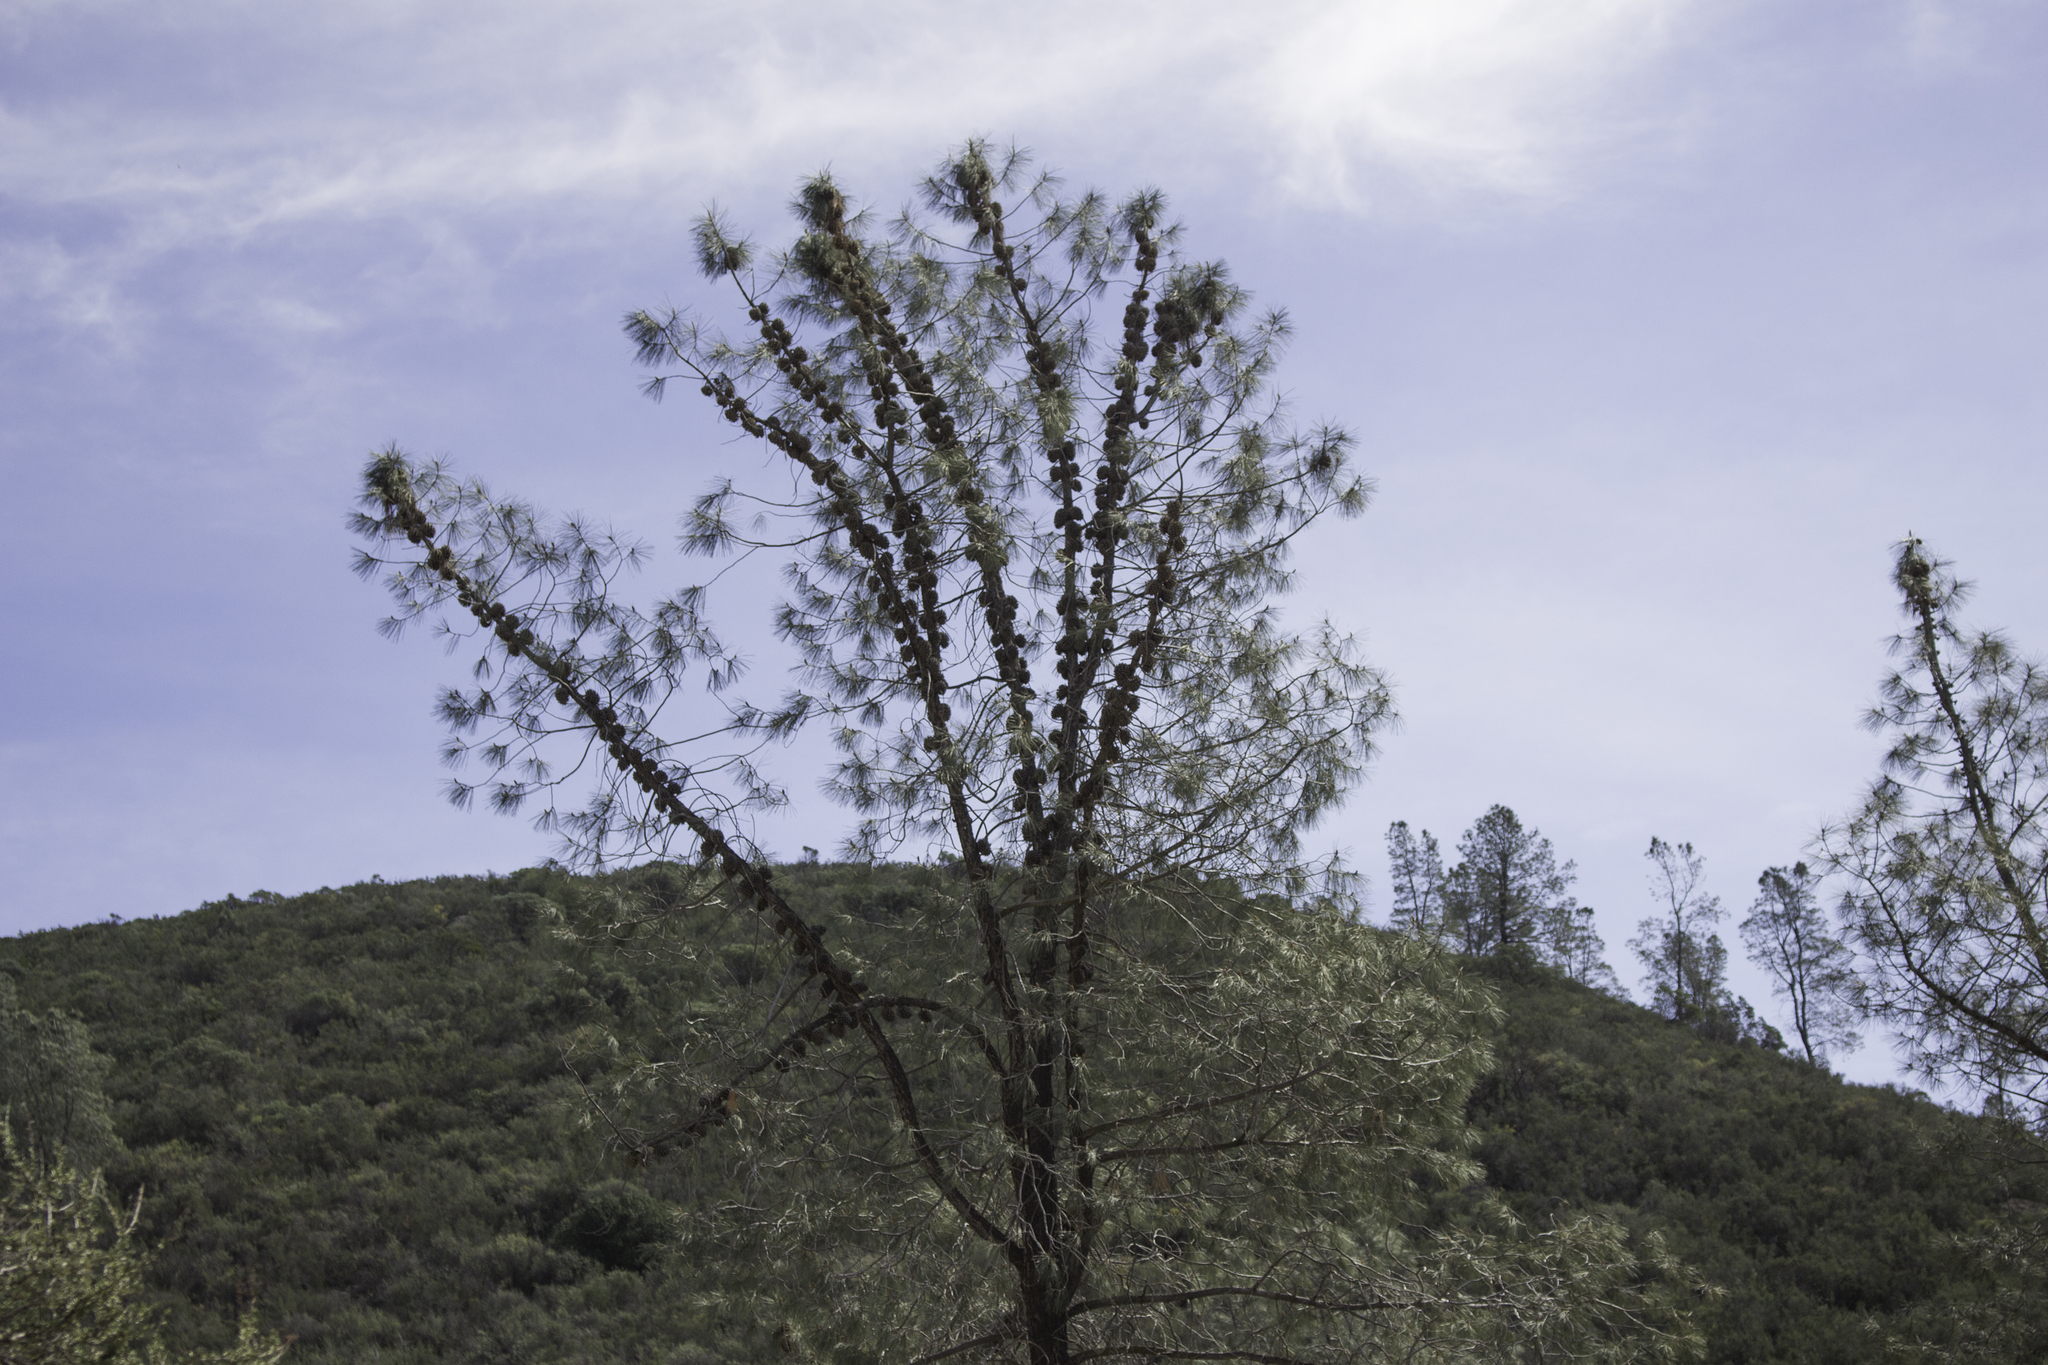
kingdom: Plantae
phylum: Tracheophyta
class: Pinopsida
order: Pinales
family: Pinaceae
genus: Pinus
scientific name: Pinus sabiniana
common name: Bull pine
